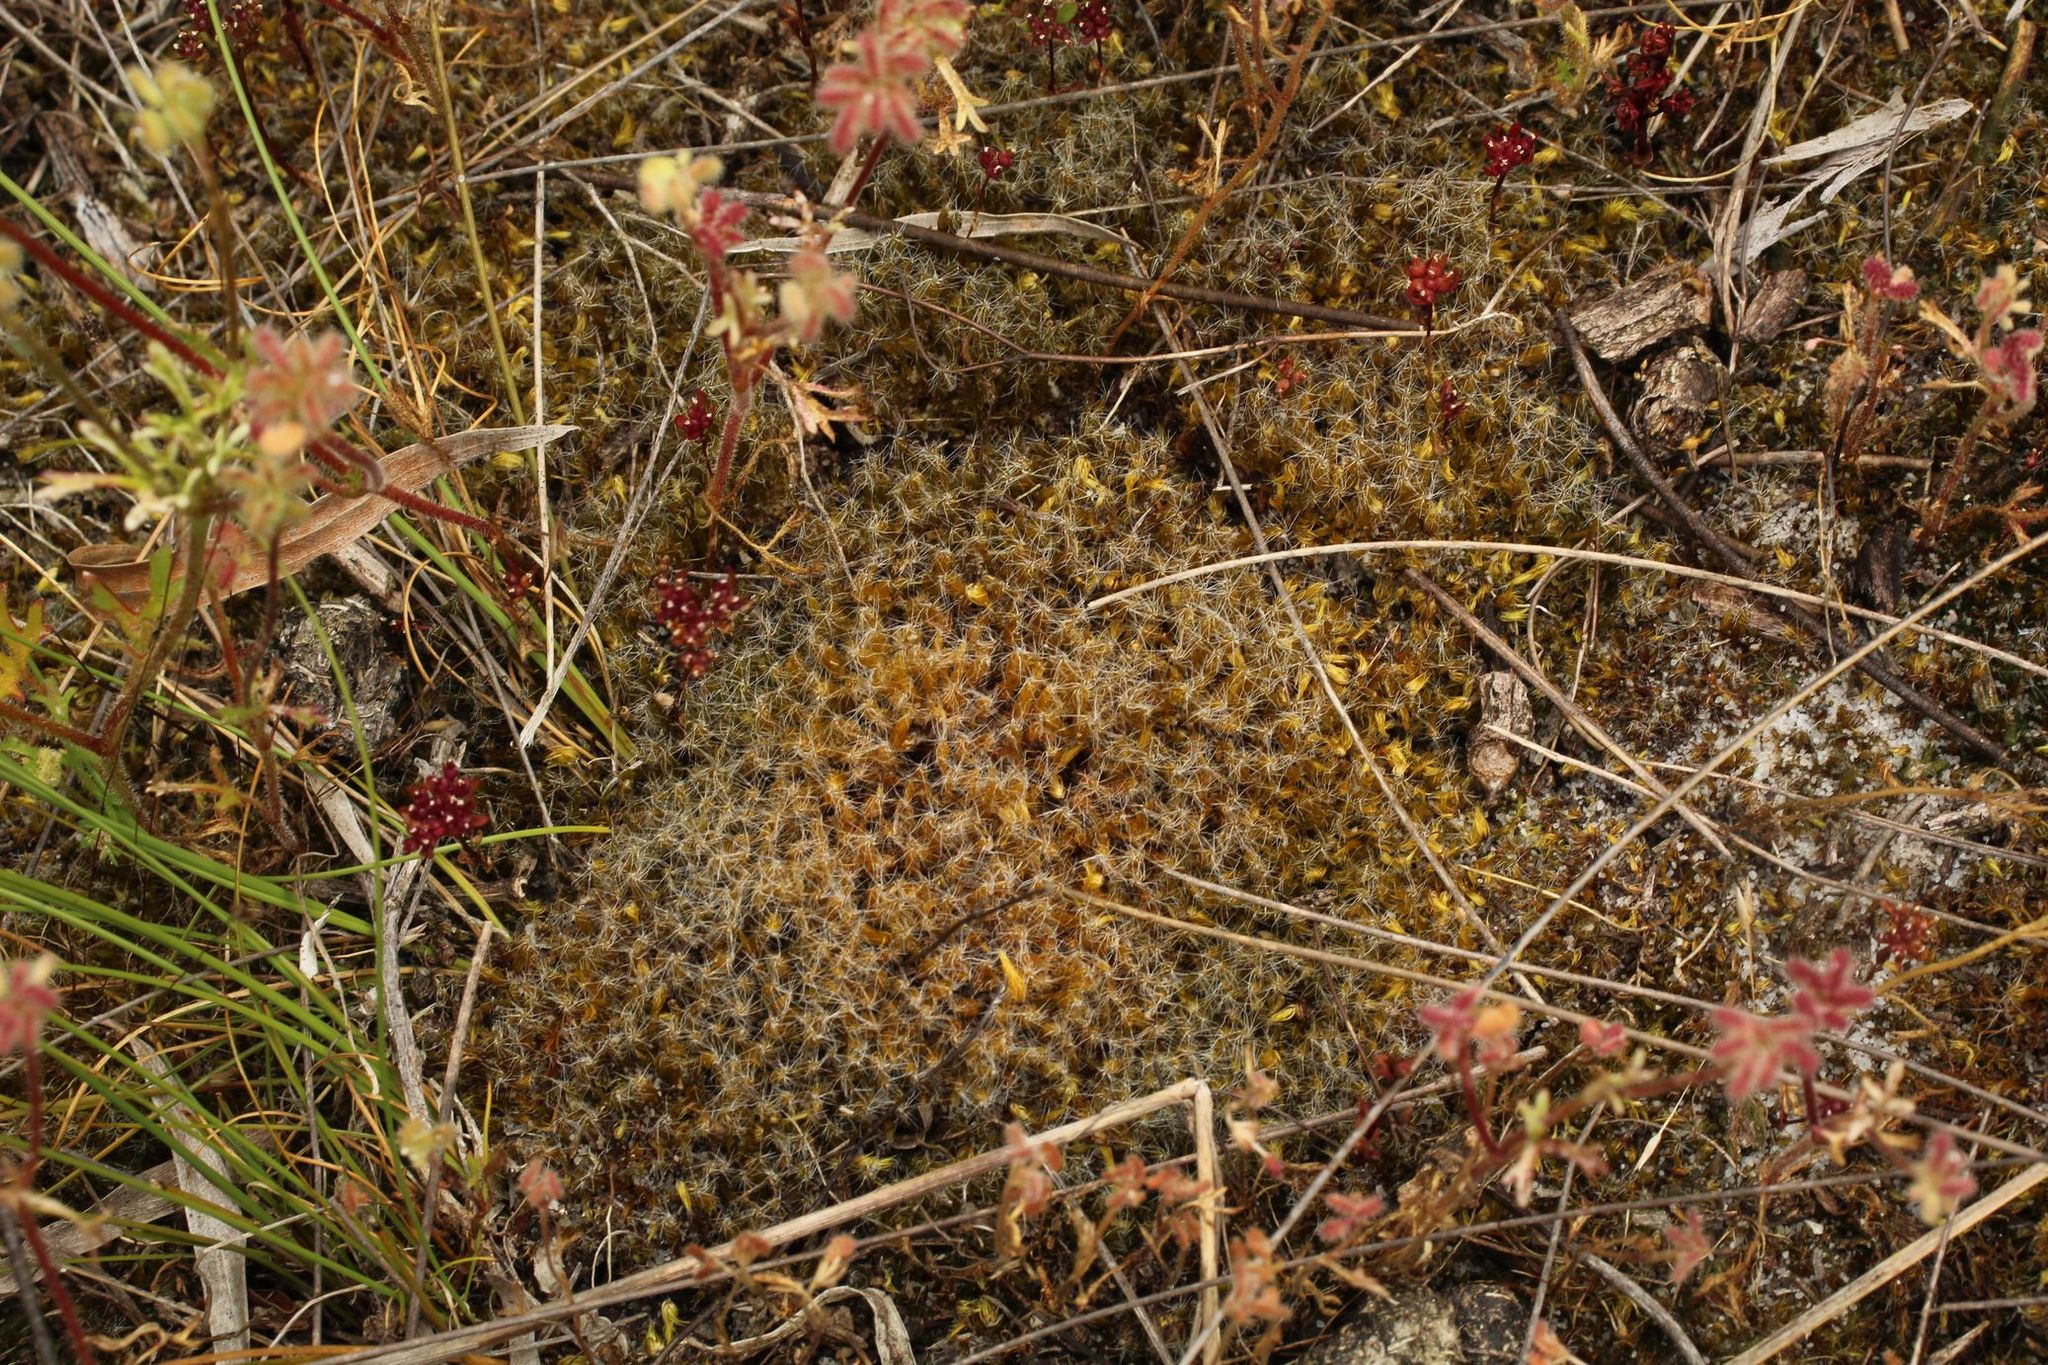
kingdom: Plantae
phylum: Bryophyta
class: Bryopsida
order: Dicranales
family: Leucobryaceae
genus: Campylopus
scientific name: Campylopus introflexus
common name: Heath star moss
